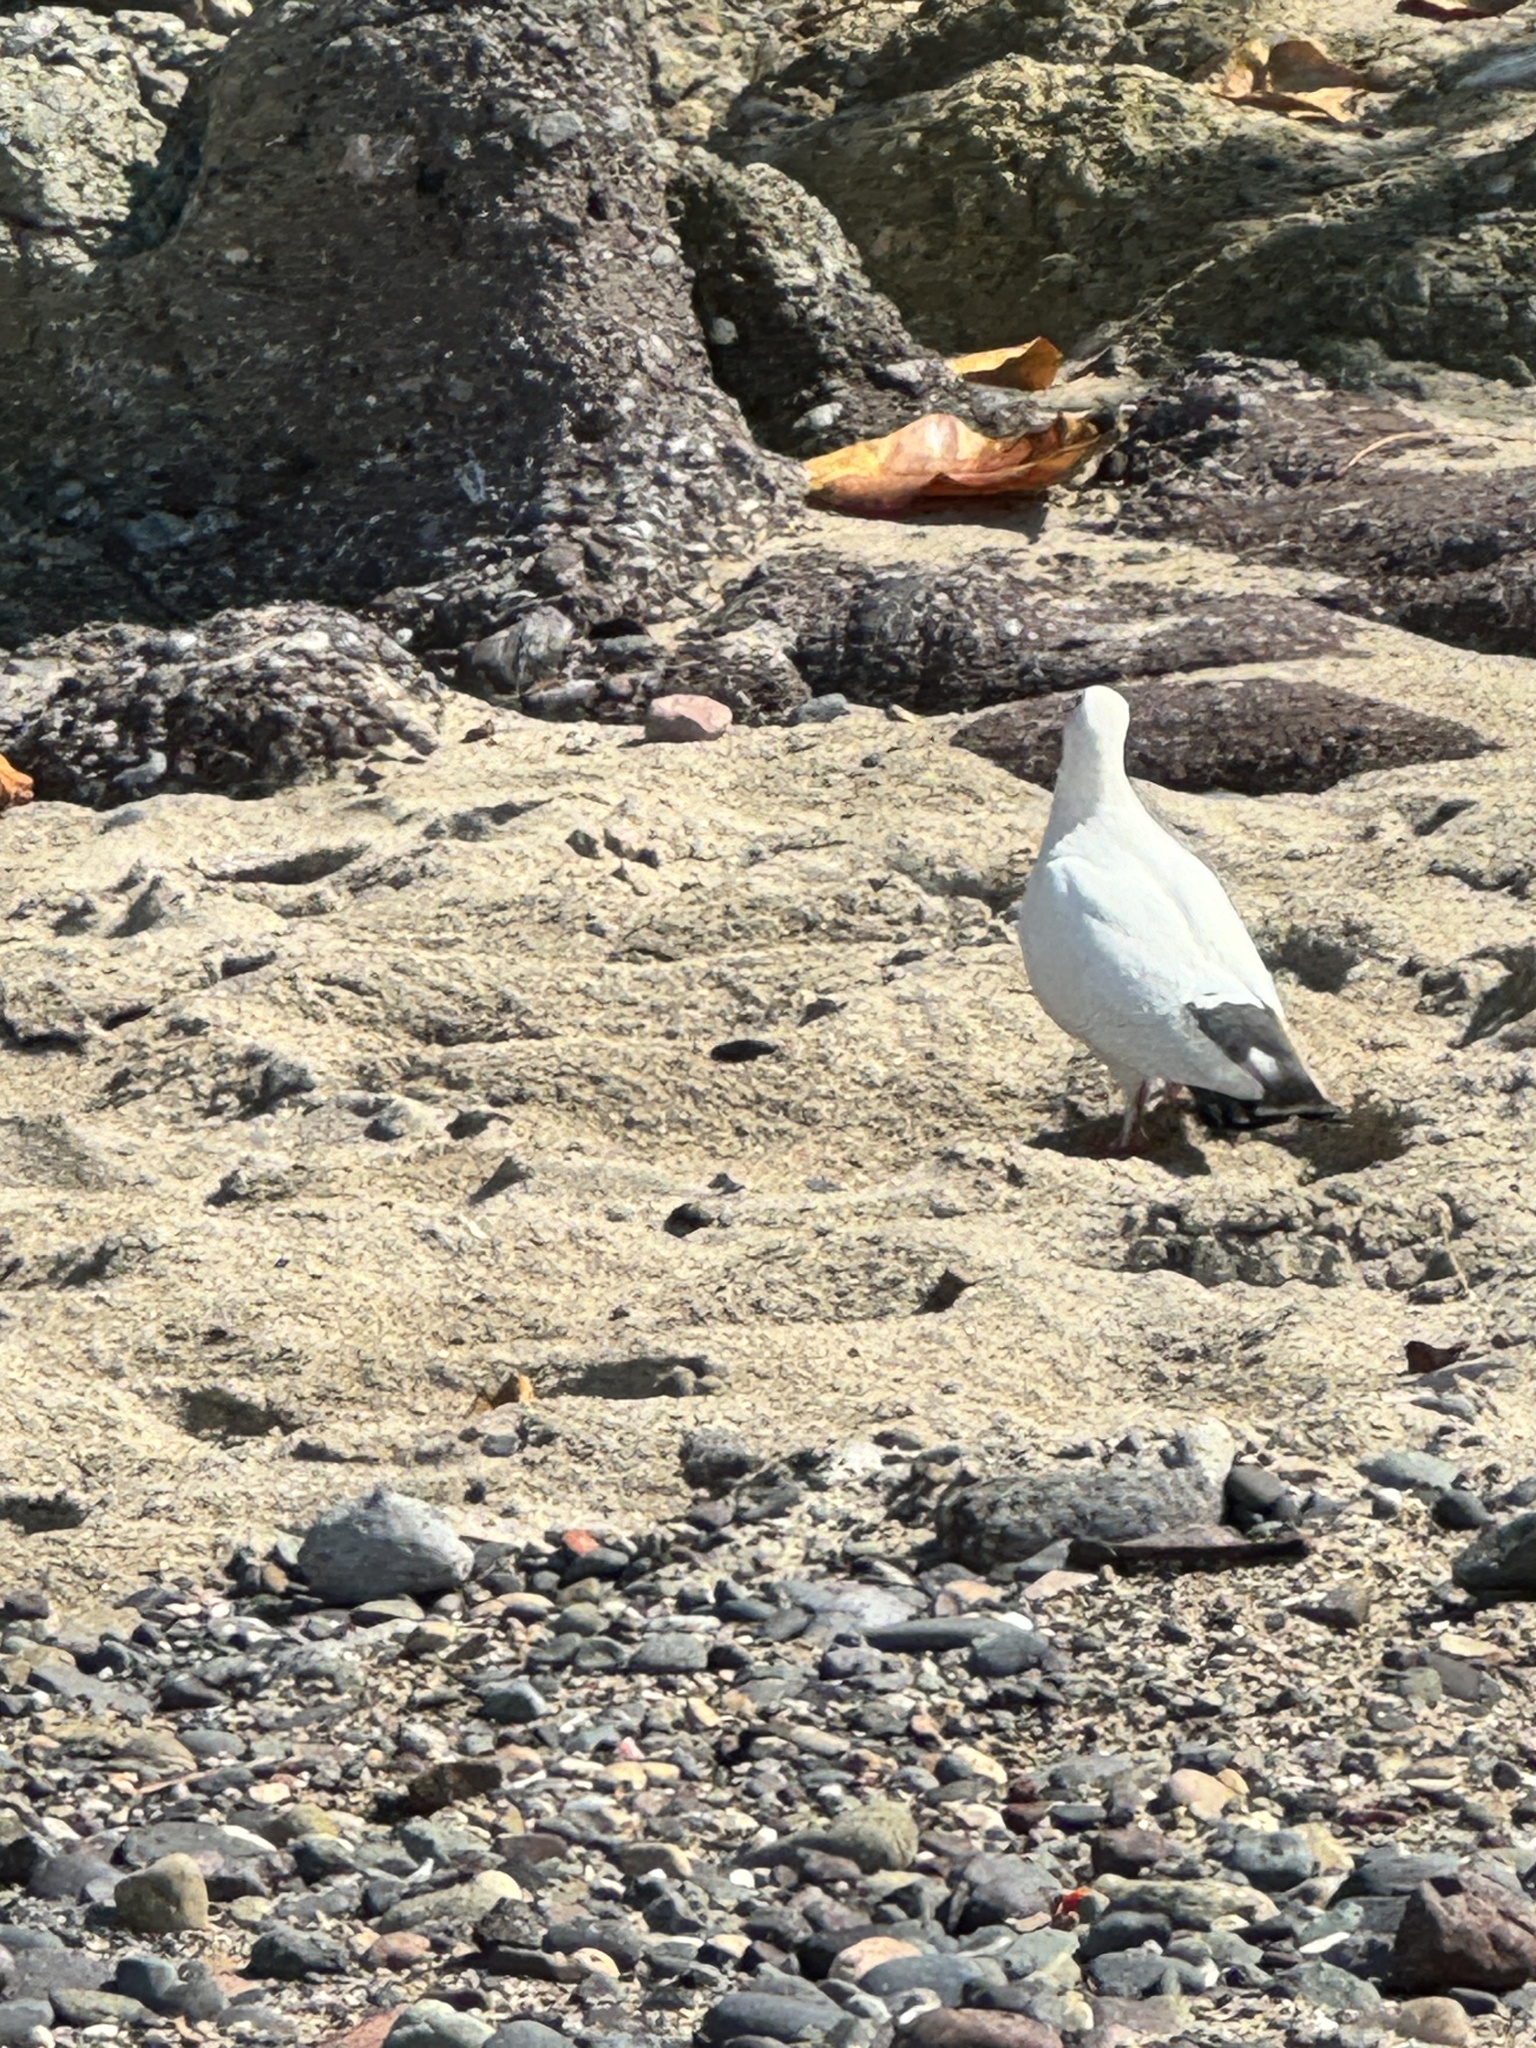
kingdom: Animalia
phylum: Chordata
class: Aves
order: Columbiformes
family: Columbidae
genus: Columba
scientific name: Columba livia
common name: Rock pigeon
